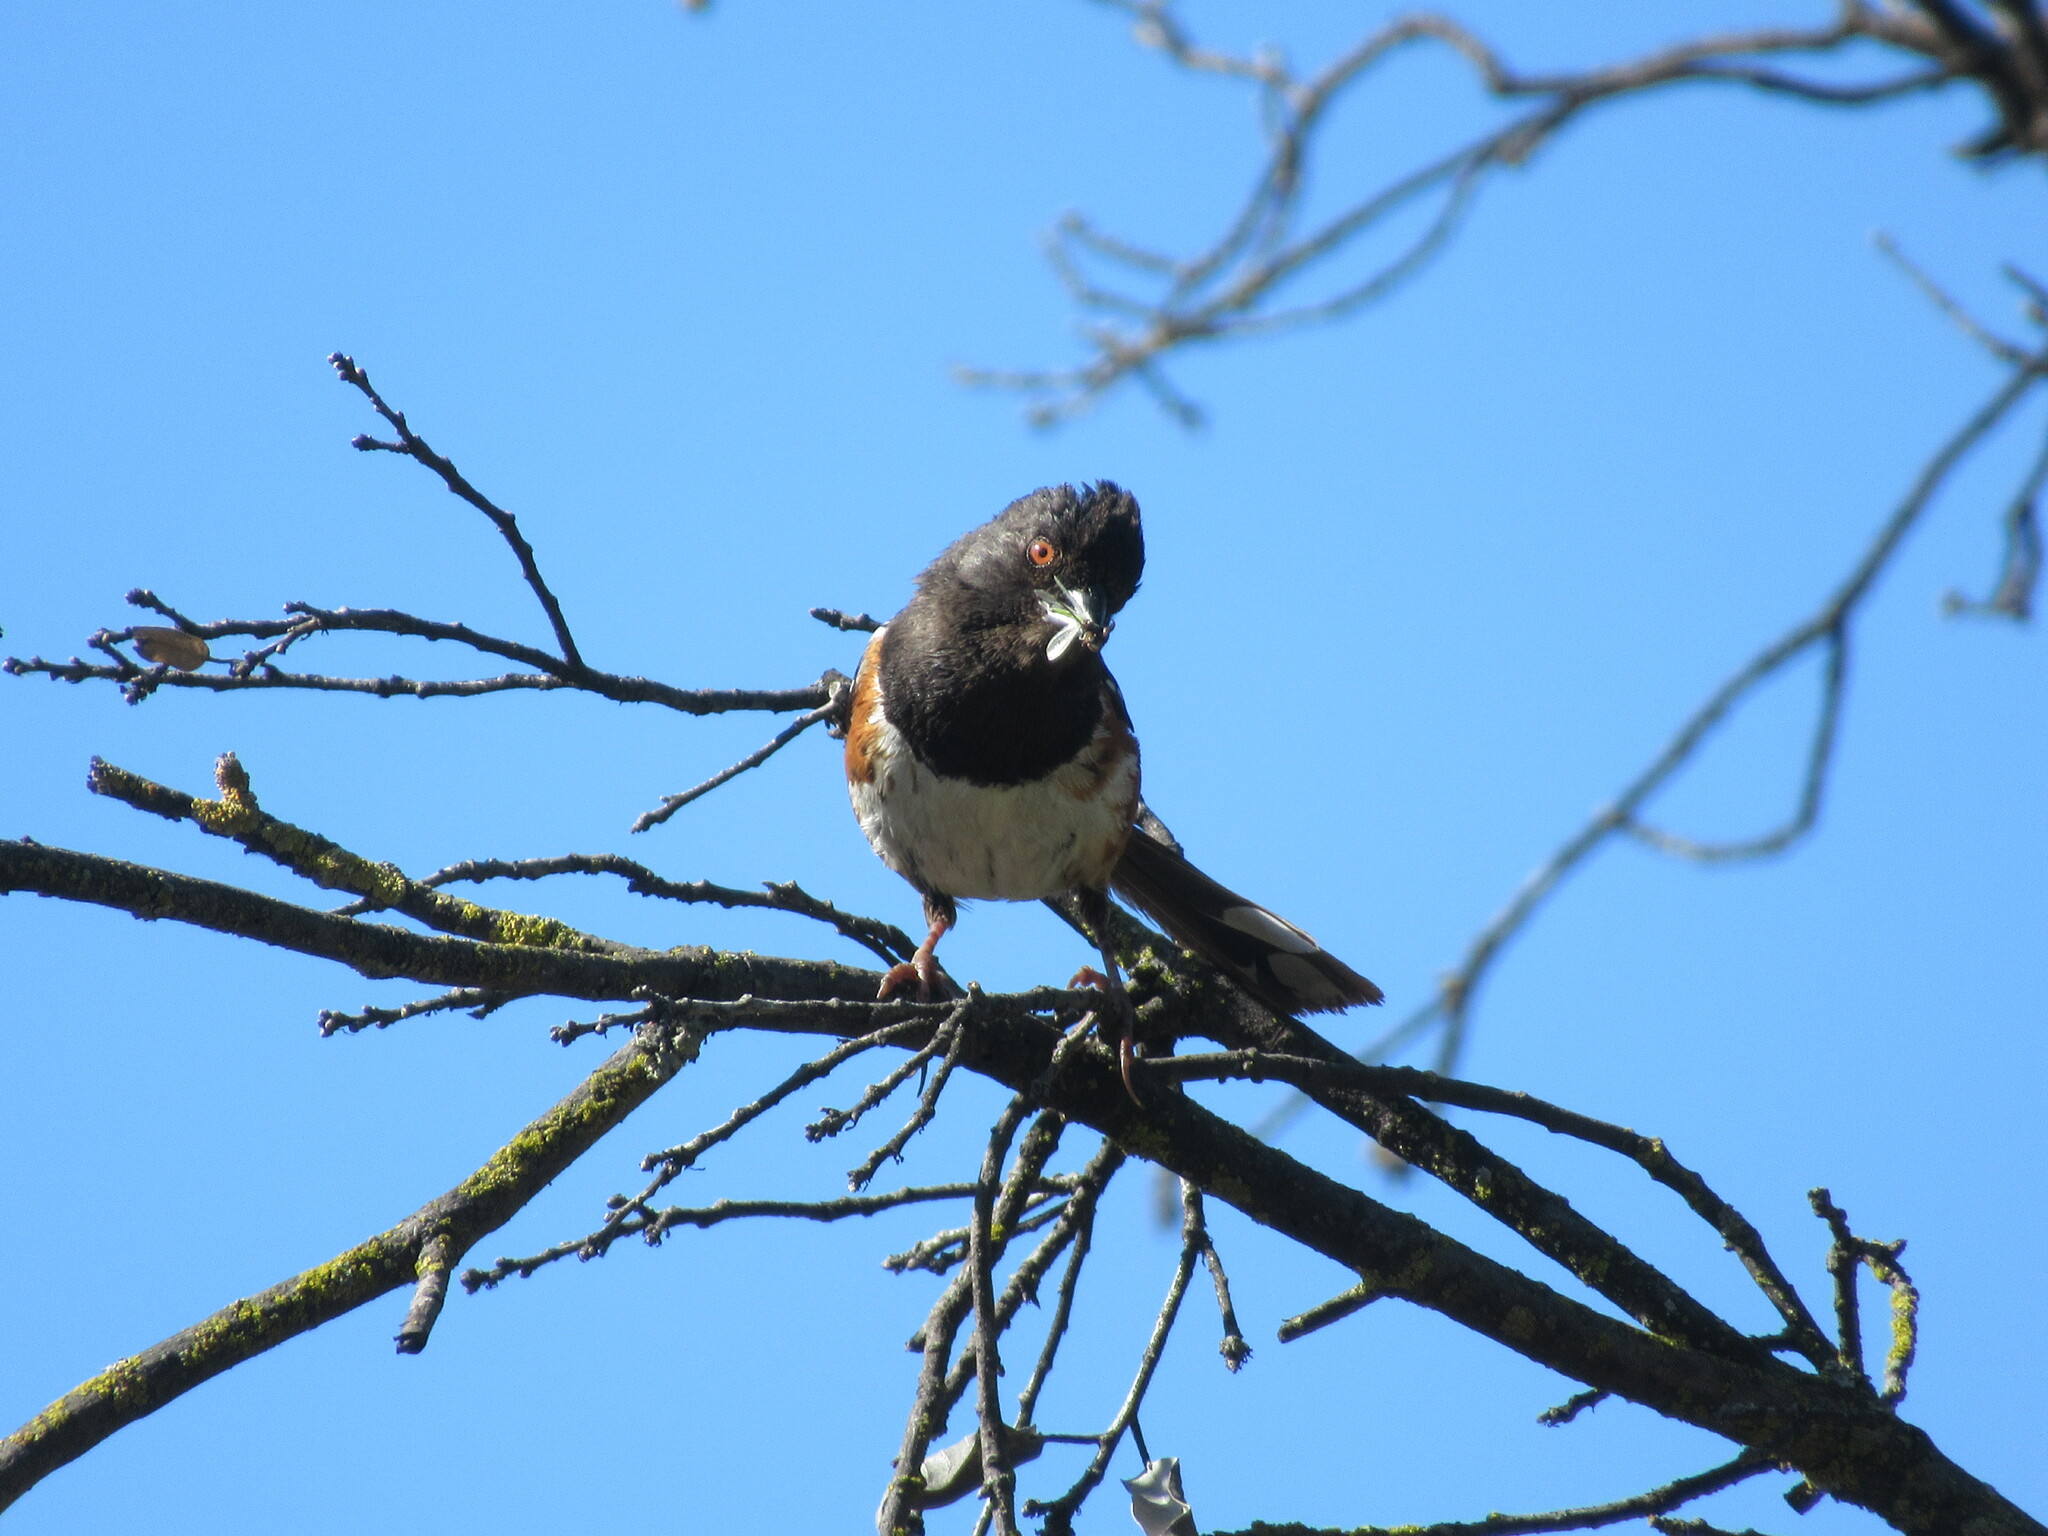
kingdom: Animalia
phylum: Chordata
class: Aves
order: Passeriformes
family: Passerellidae
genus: Pipilo
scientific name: Pipilo maculatus
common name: Spotted towhee
